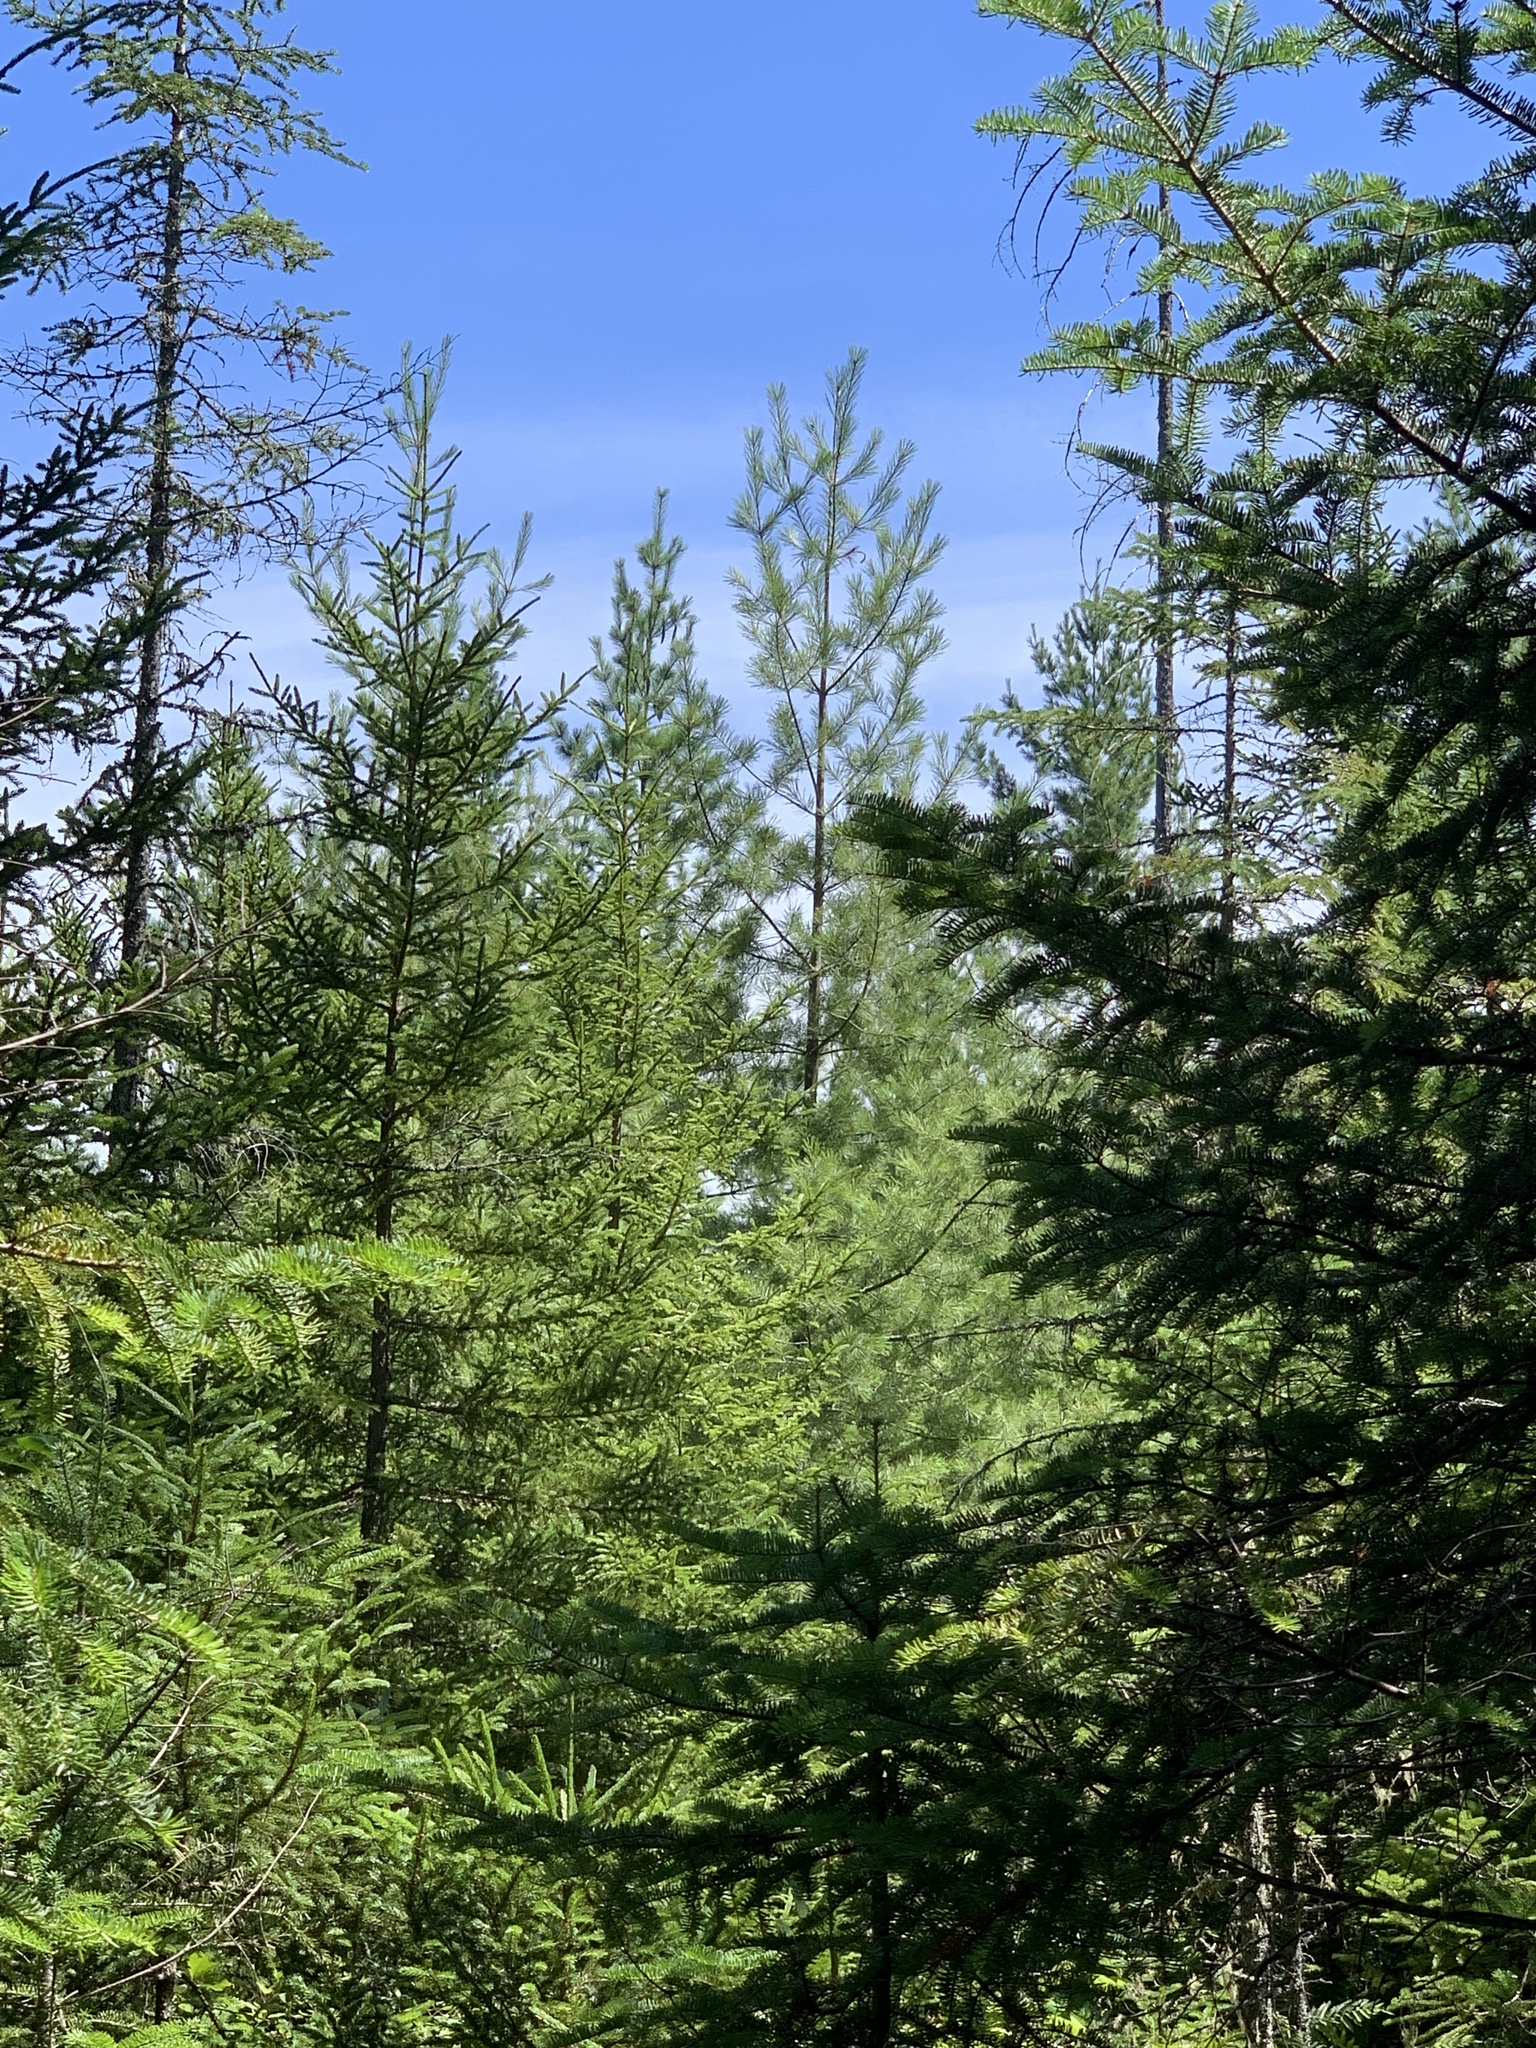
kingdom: Plantae
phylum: Tracheophyta
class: Pinopsida
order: Pinales
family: Pinaceae
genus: Pinus
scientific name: Pinus strobus
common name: Weymouth pine
